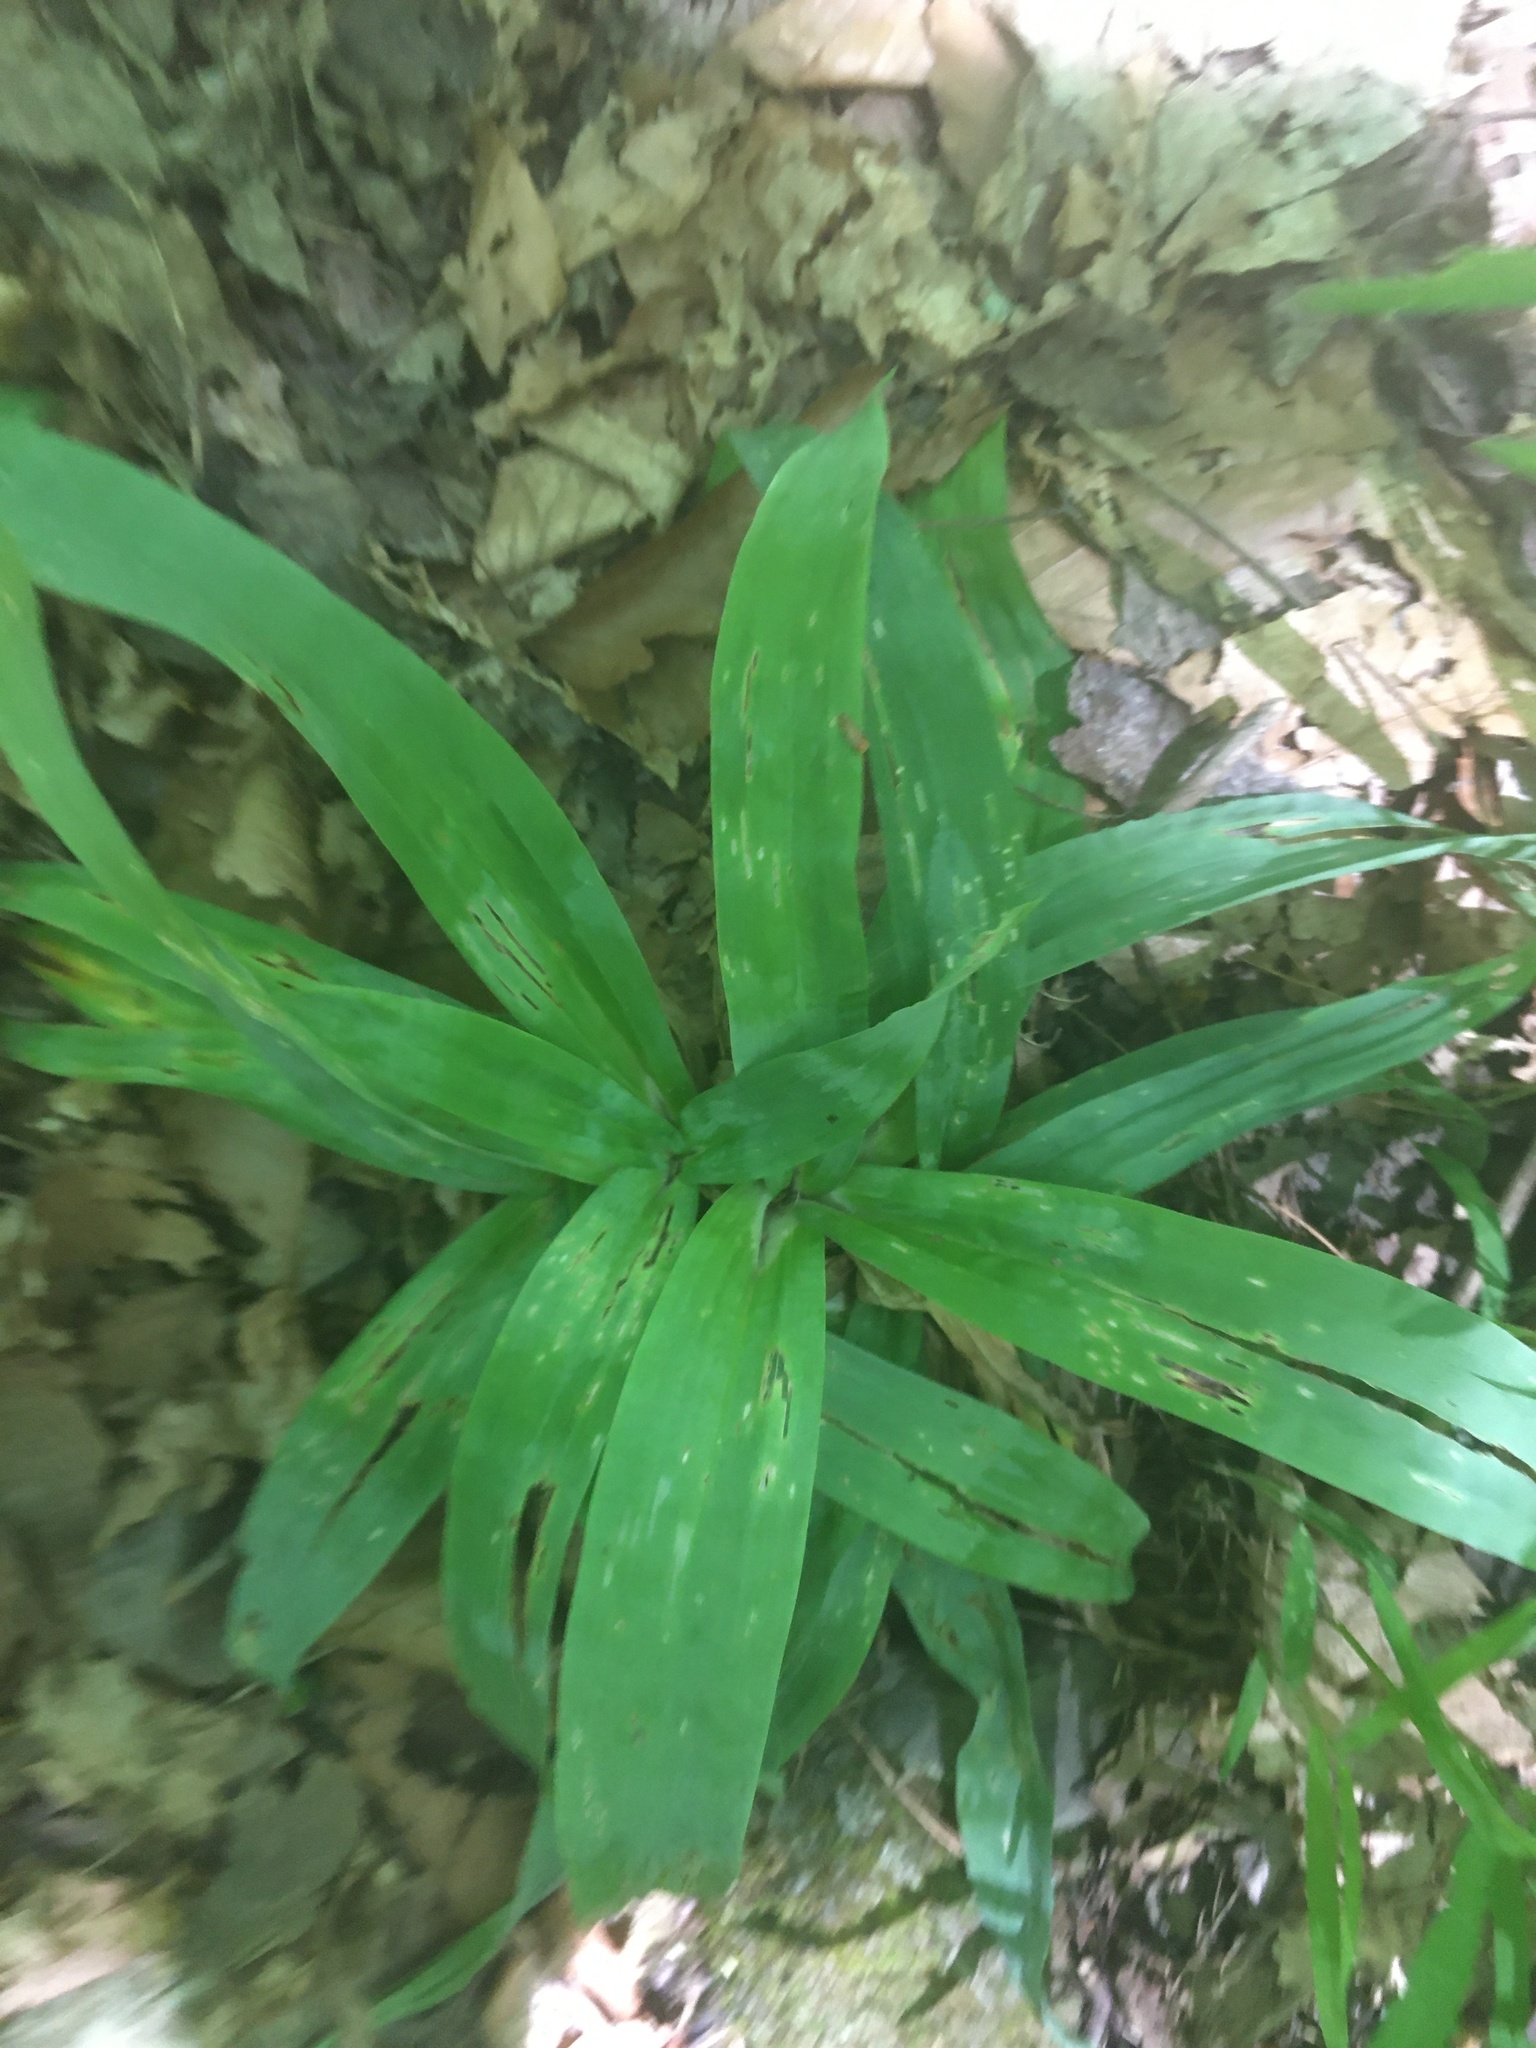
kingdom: Plantae
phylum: Tracheophyta
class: Liliopsida
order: Poales
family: Cyperaceae
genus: Carex
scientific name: Carex platyphylla
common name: Broad-leaved sedge
